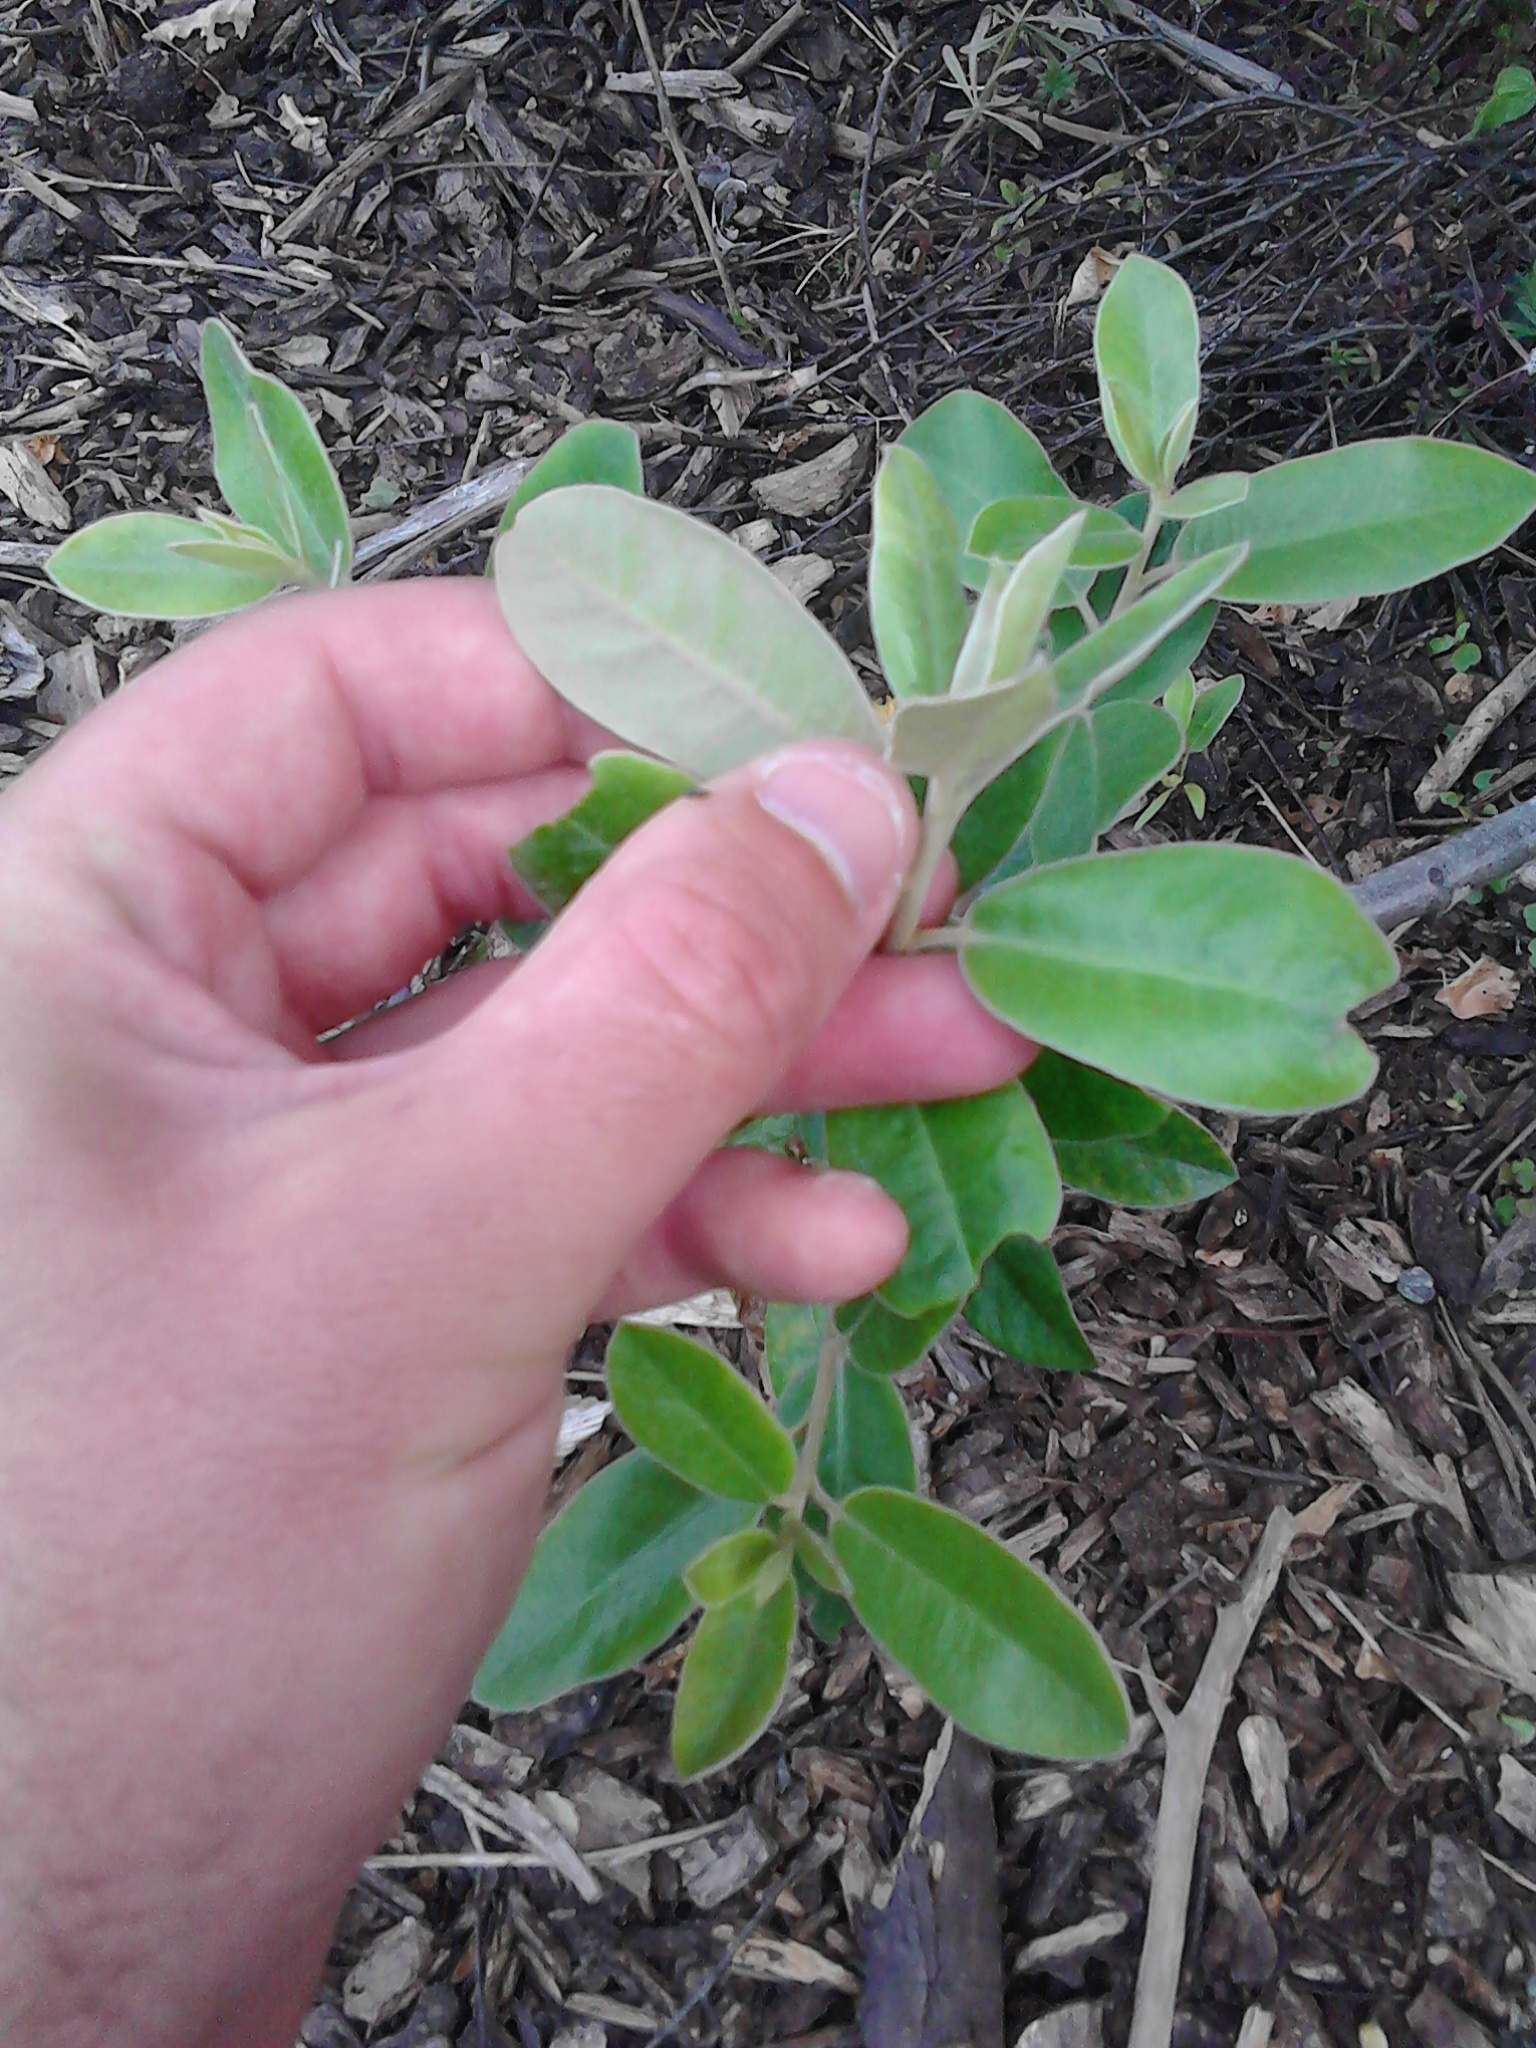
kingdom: Plantae
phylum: Tracheophyta
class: Magnoliopsida
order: Apiales
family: Pittosporaceae
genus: Pittosporum
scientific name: Pittosporum ralphii
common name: Ralph's desertwillow
